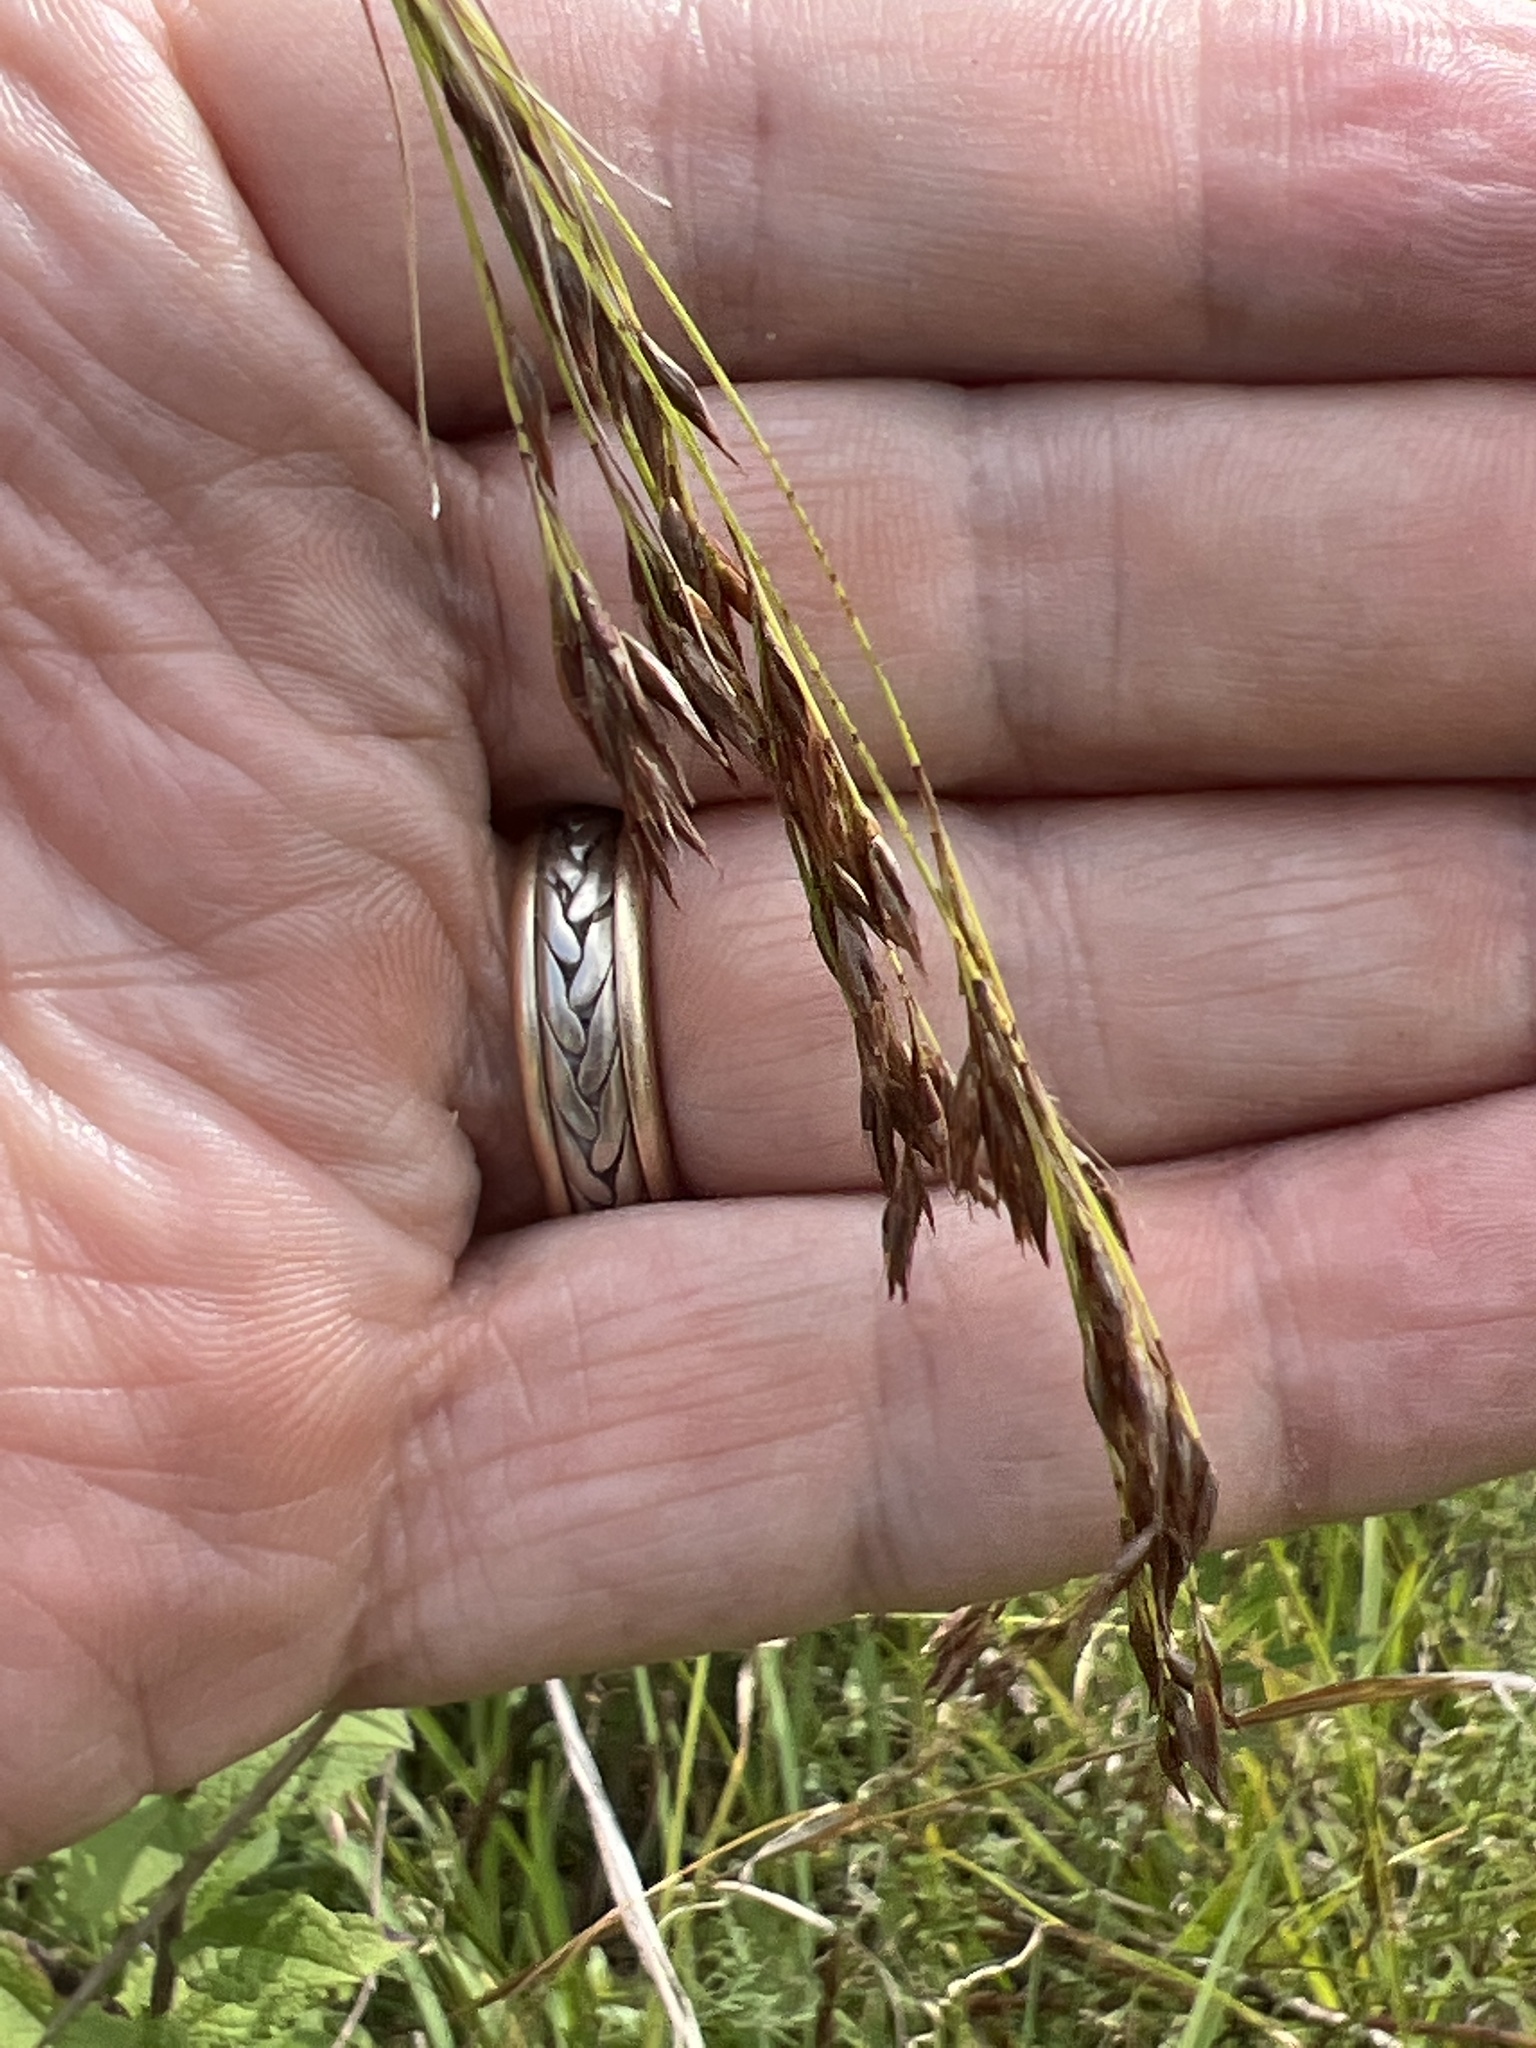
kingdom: Plantae
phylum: Tracheophyta
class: Liliopsida
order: Poales
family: Cyperaceae
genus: Rhynchospora
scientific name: Rhynchospora inexpansa
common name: Nodding beaksedge
